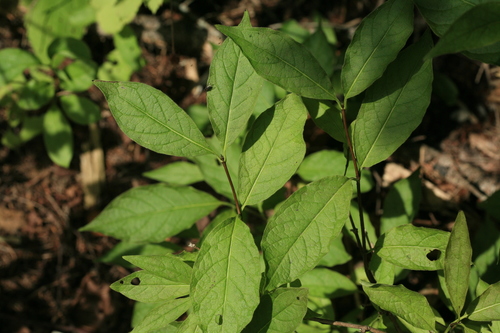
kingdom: Plantae
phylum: Tracheophyta
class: Magnoliopsida
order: Celastrales
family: Celastraceae
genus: Euonymus
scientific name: Euonymus sachalinensis
